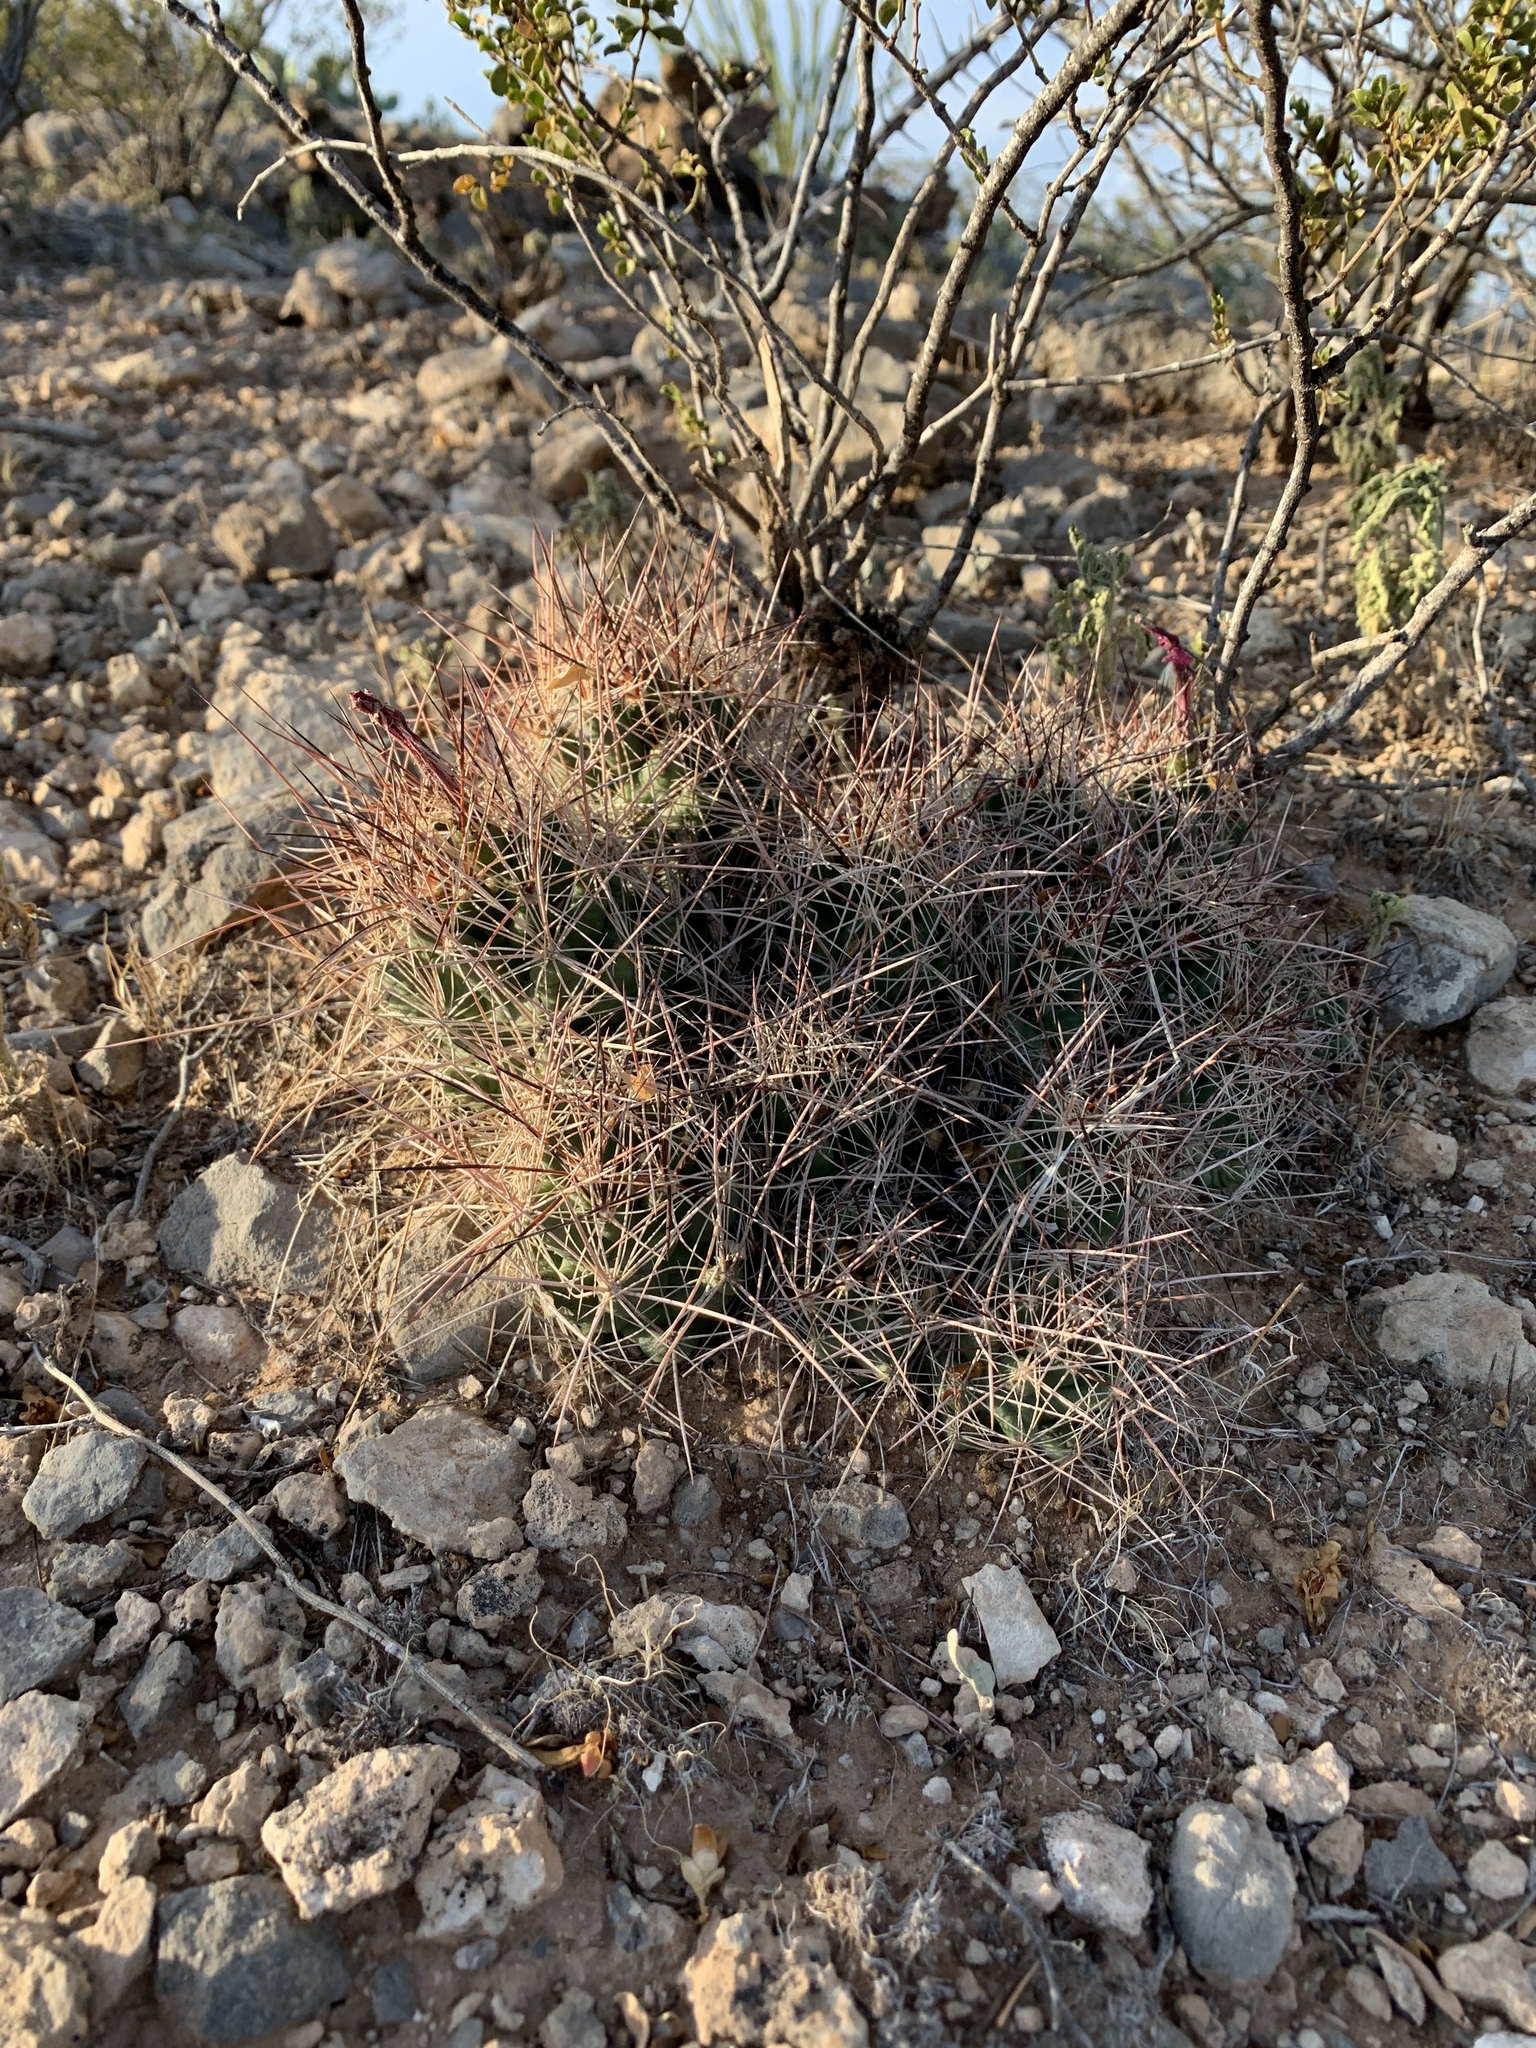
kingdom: Plantae
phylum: Tracheophyta
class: Magnoliopsida
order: Caryophyllales
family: Cactaceae
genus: Coryphantha
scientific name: Coryphantha macromeris
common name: Nipple beehive cactus
